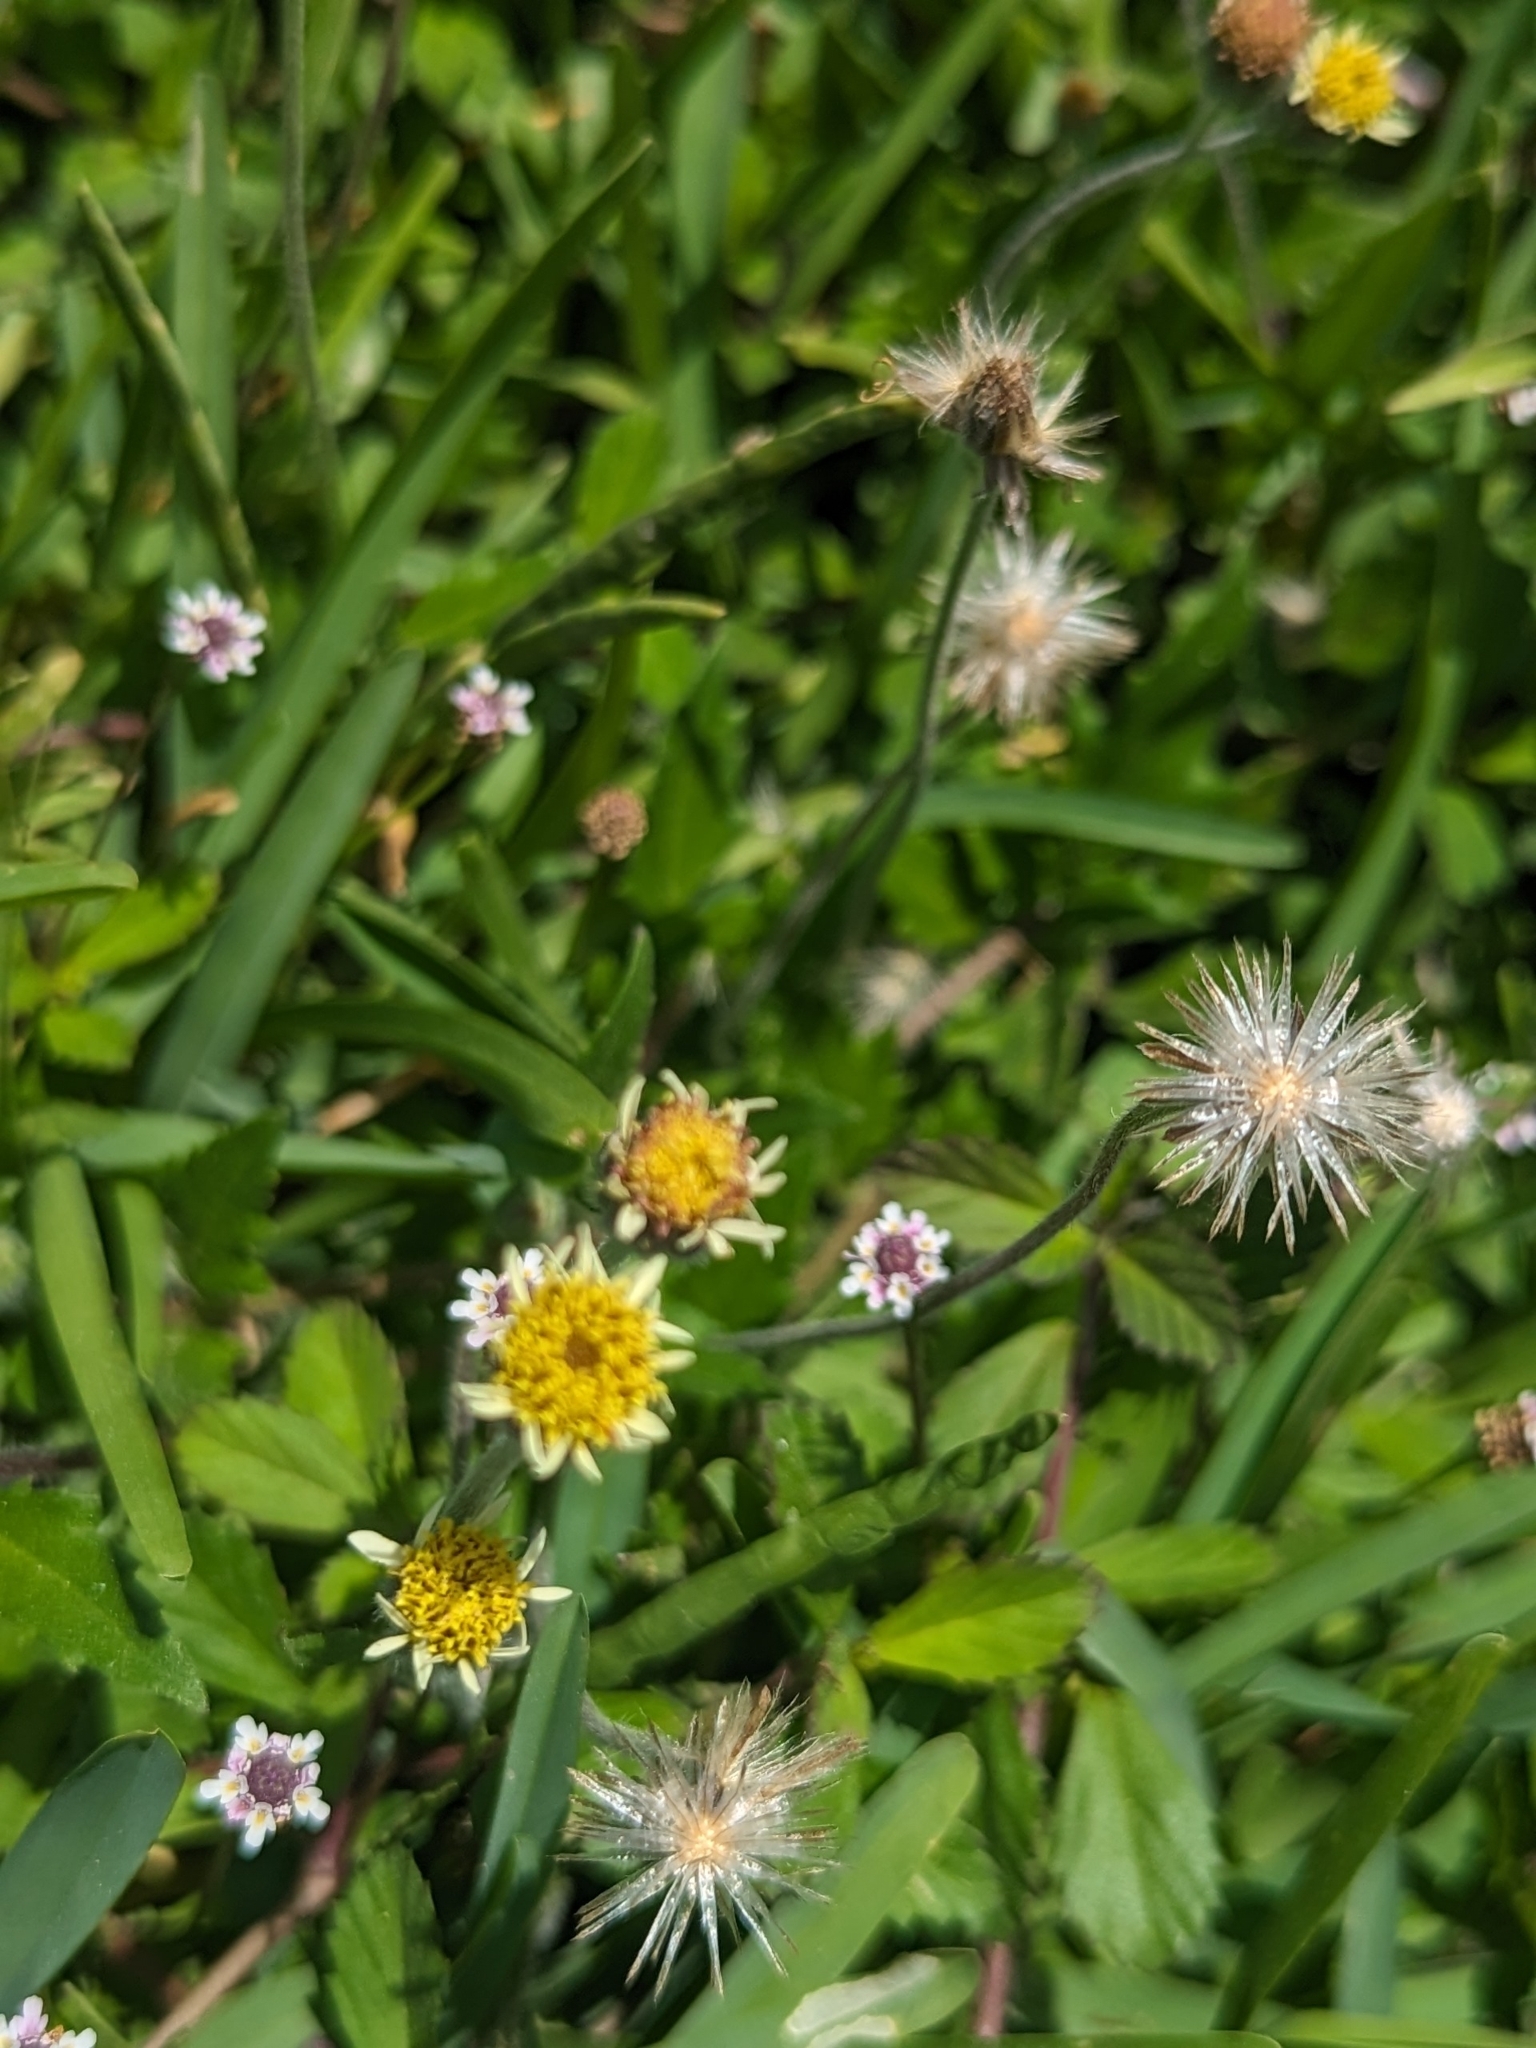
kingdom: Plantae
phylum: Tracheophyta
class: Magnoliopsida
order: Asterales
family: Asteraceae
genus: Tridax
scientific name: Tridax procumbens
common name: Coatbuttons
